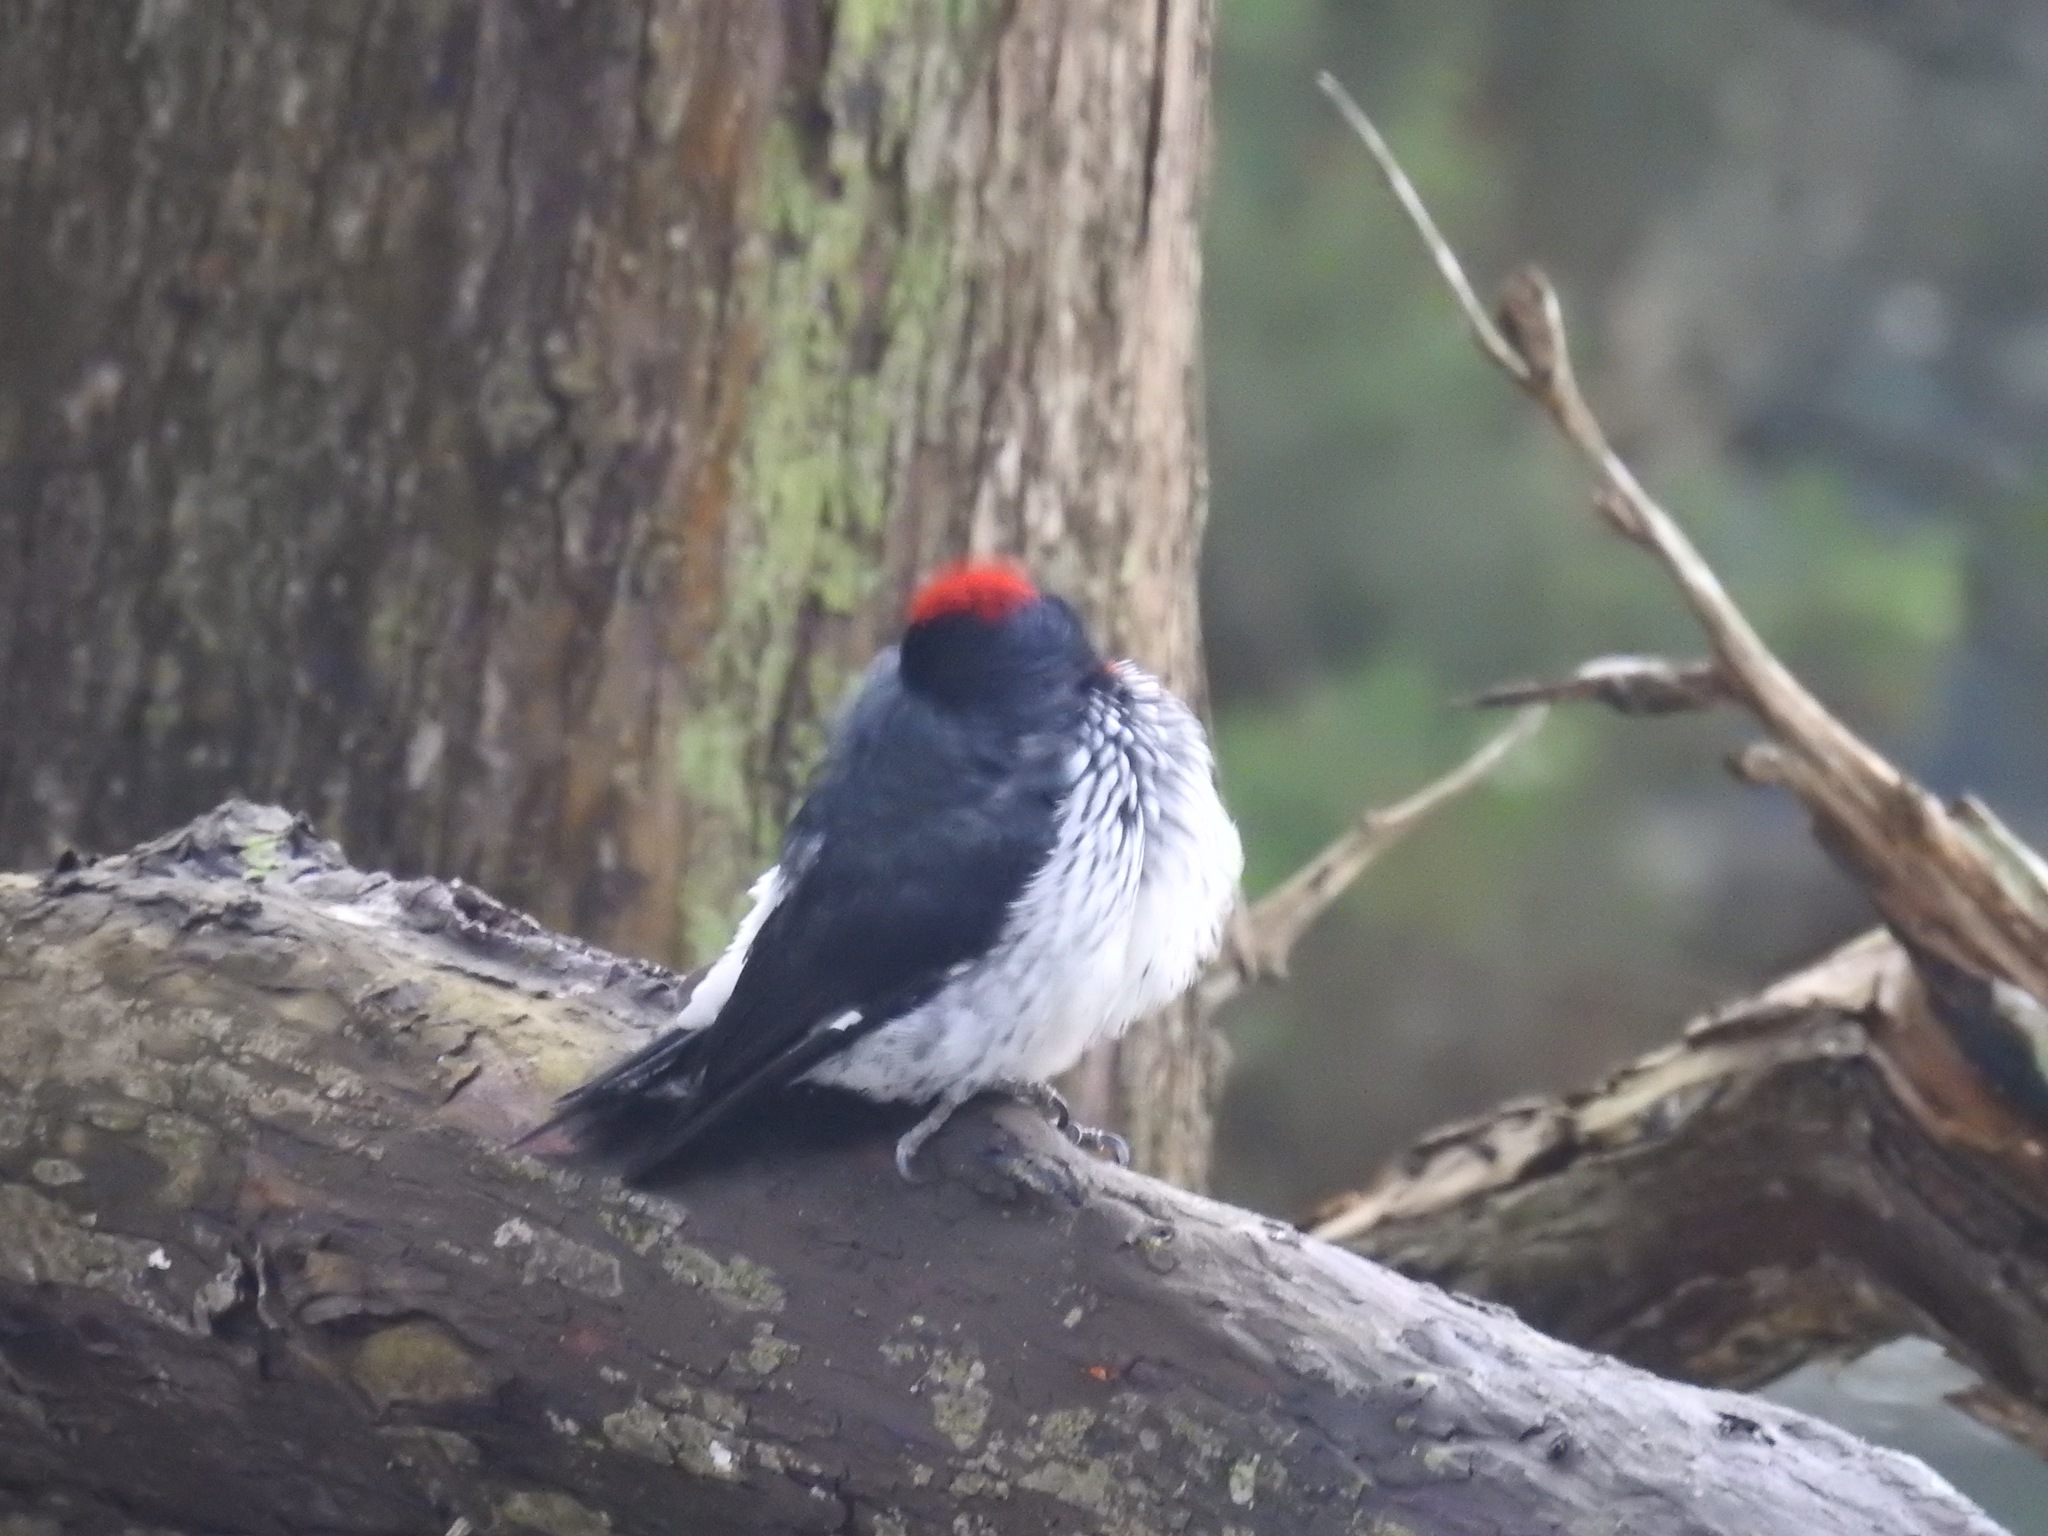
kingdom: Animalia
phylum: Chordata
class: Aves
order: Piciformes
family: Picidae
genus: Melanerpes
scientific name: Melanerpes formicivorus
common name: Acorn woodpecker
